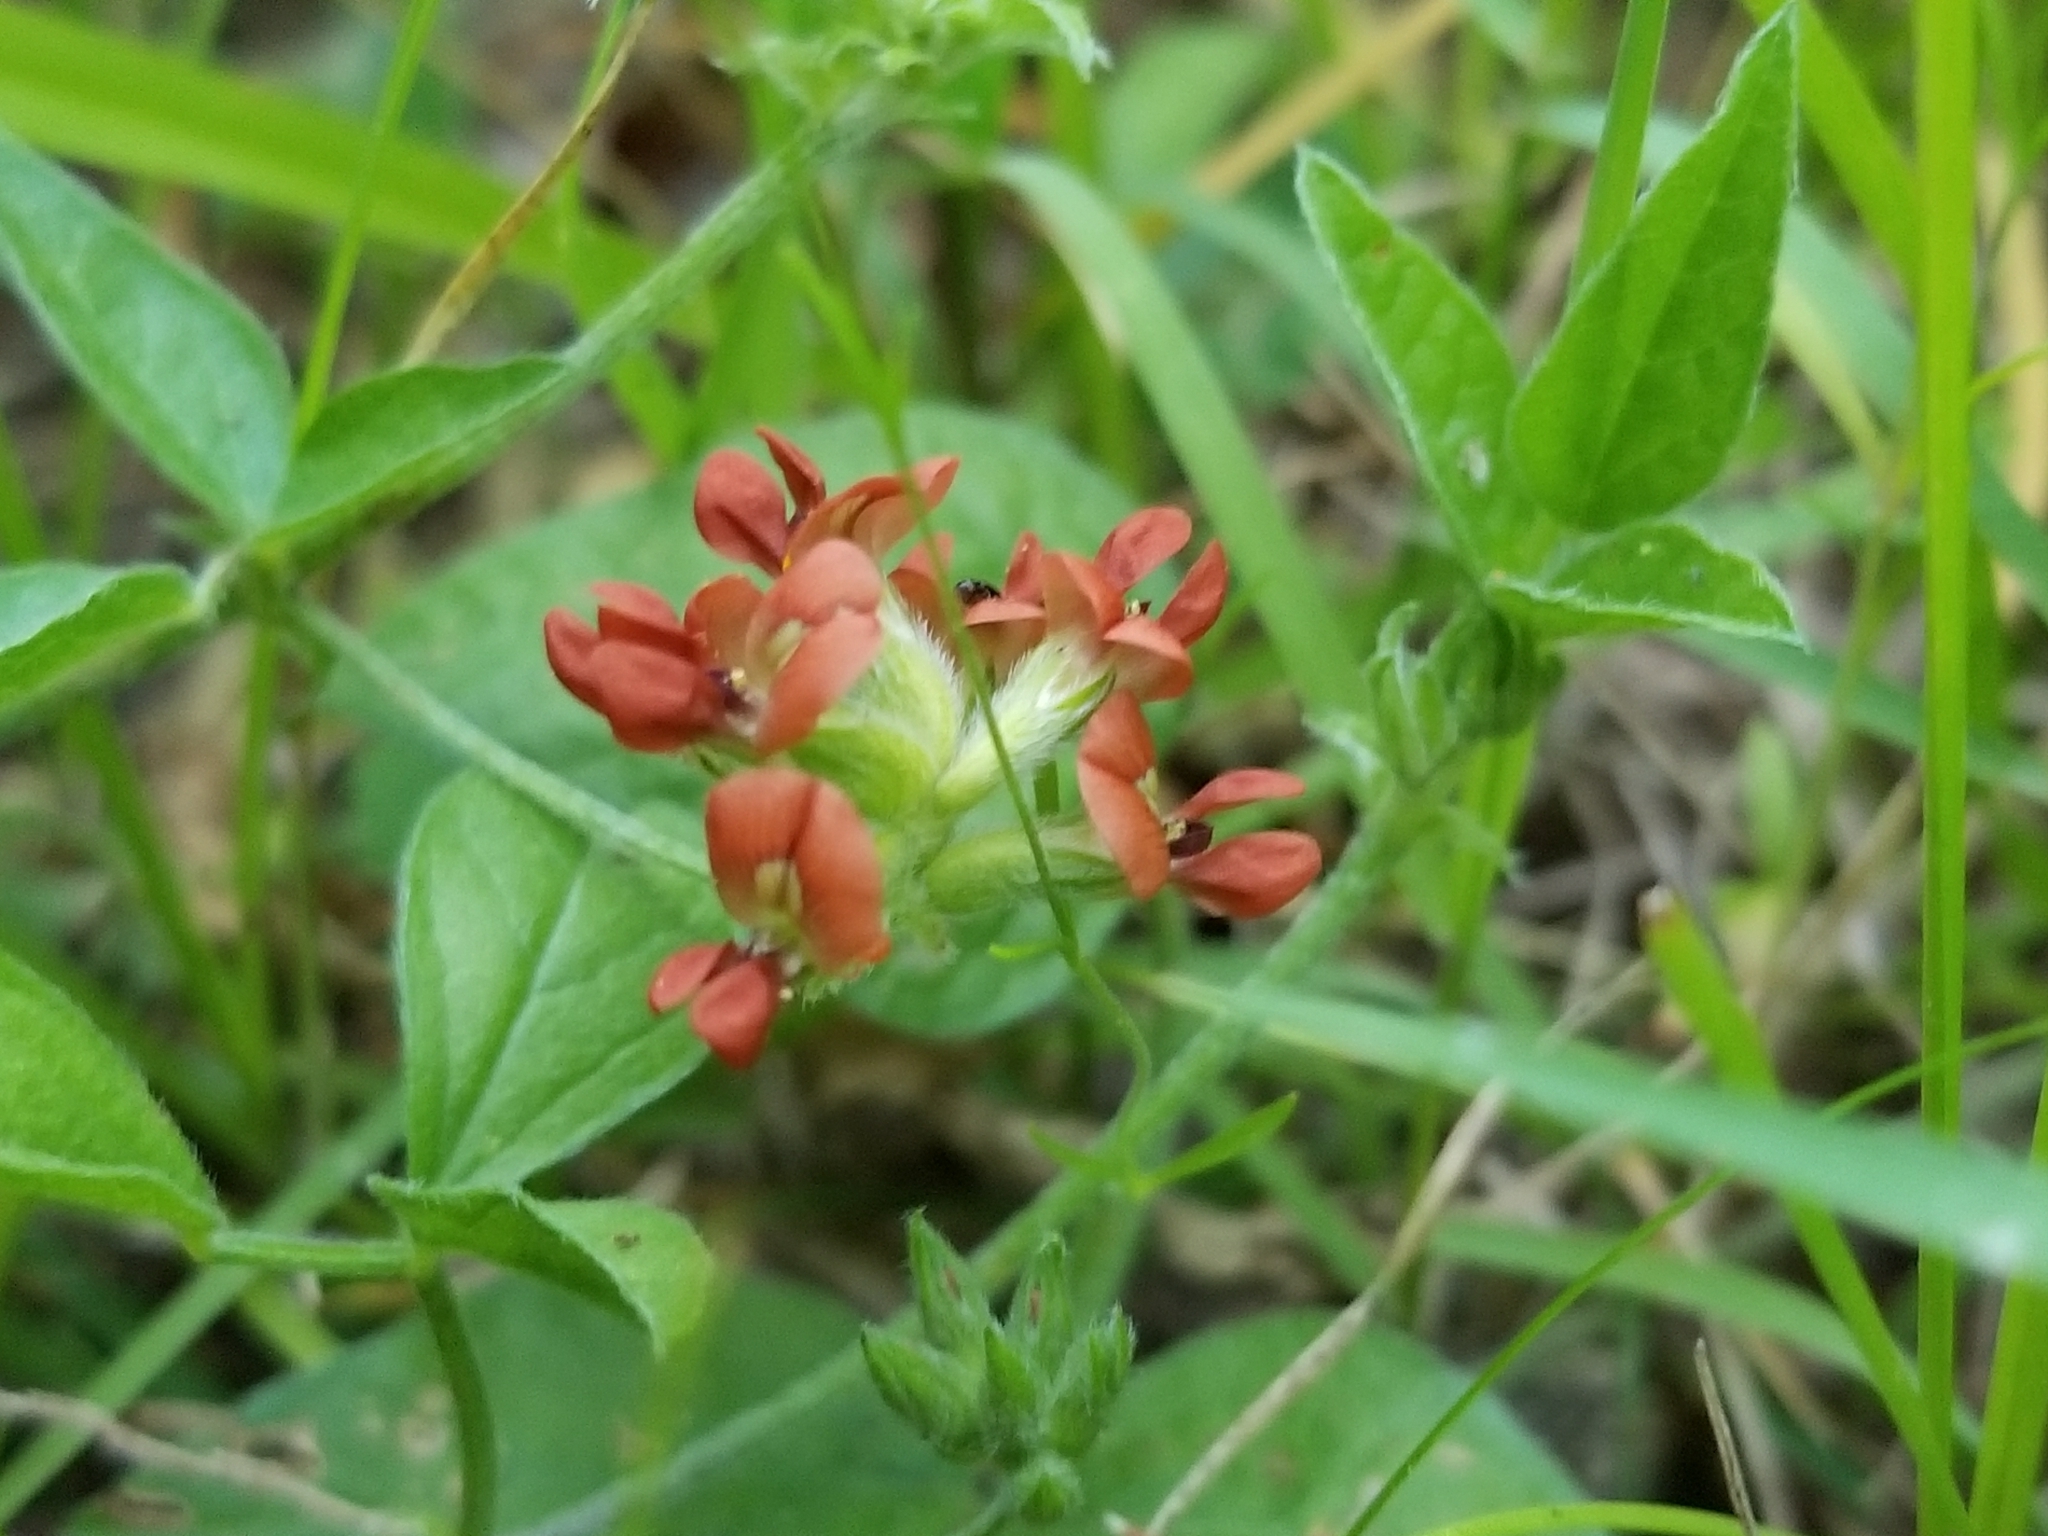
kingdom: Plantae
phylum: Tracheophyta
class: Magnoliopsida
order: Fabales
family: Fabaceae
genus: Pediomelum
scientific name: Pediomelum rhombifolium
